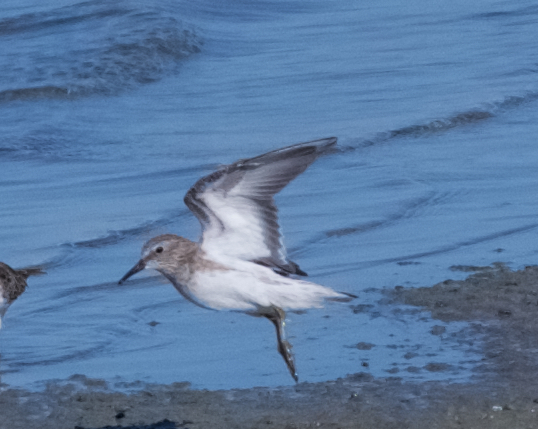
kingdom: Animalia
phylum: Chordata
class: Aves
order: Charadriiformes
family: Scolopacidae
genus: Calidris
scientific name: Calidris minutilla
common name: Least sandpiper
